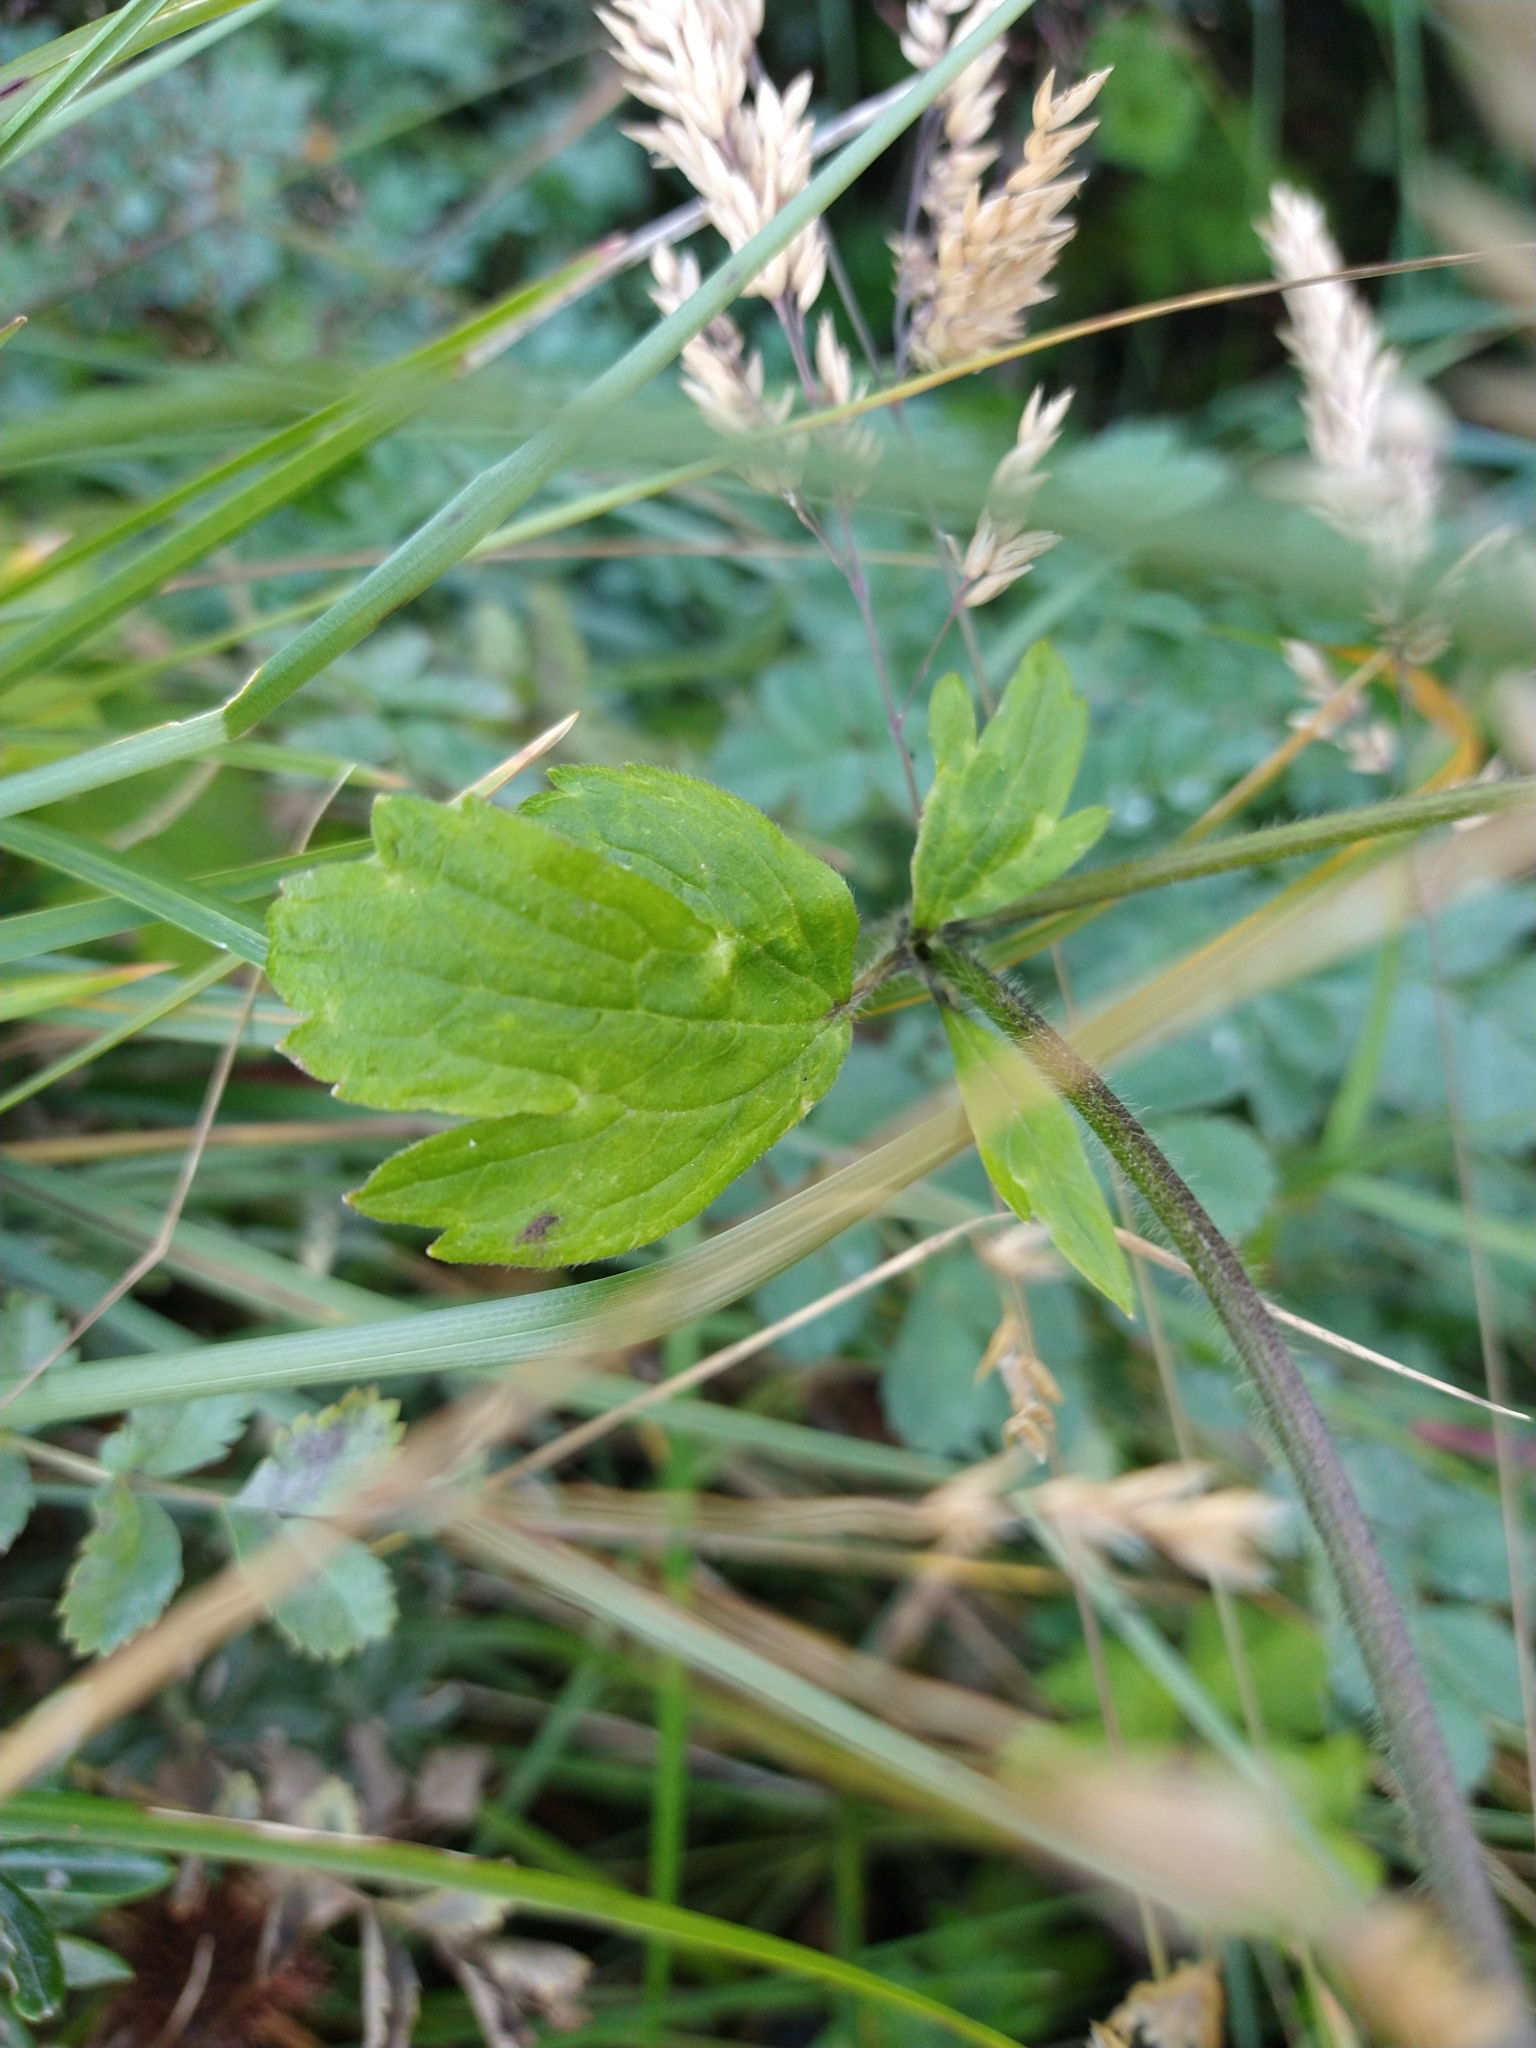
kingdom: Plantae
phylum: Tracheophyta
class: Magnoliopsida
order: Ranunculales
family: Ranunculaceae
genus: Ranunculus
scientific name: Ranunculus repens
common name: Creeping buttercup
